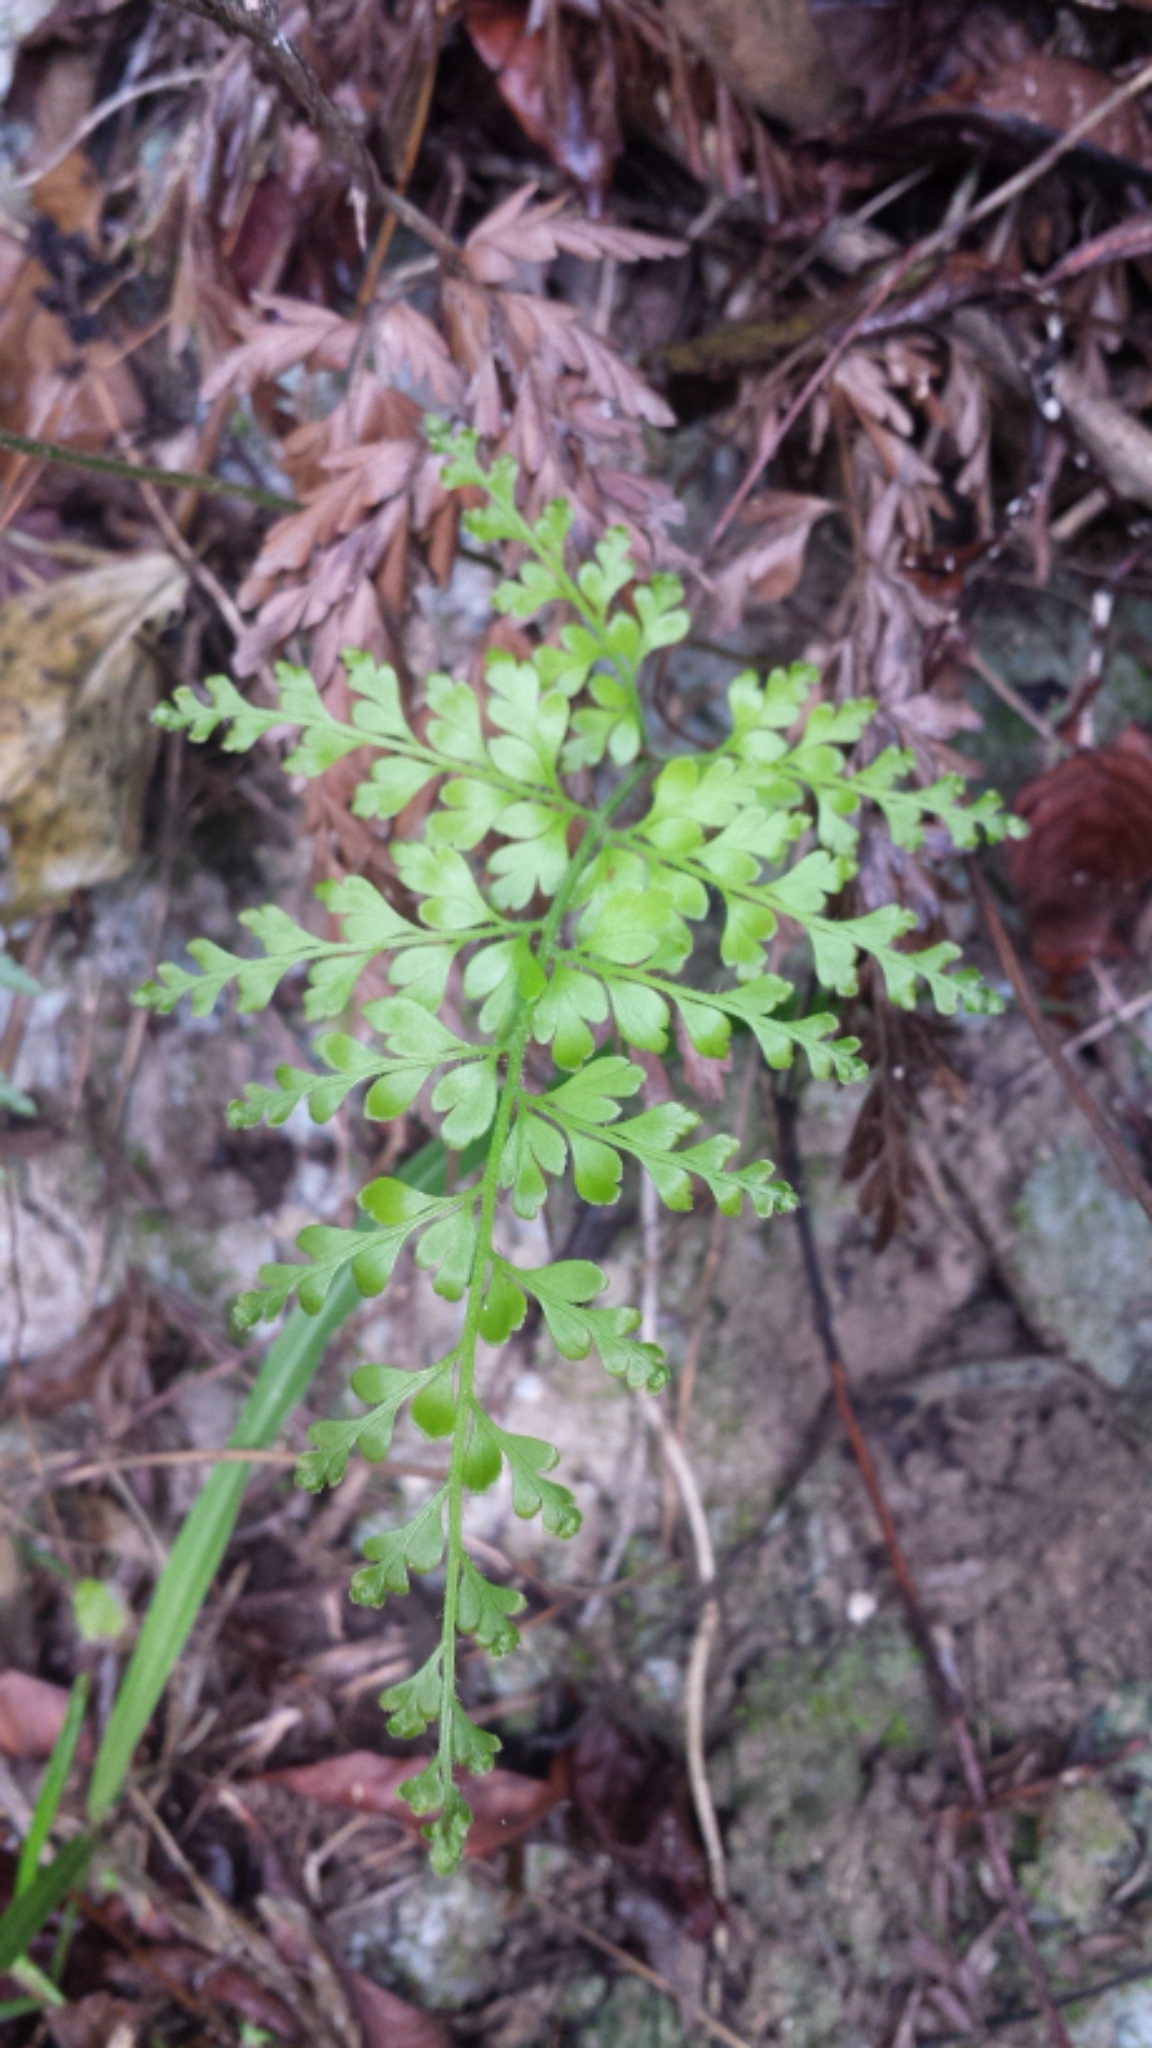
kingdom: Plantae
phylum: Tracheophyta
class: Polypodiopsida
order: Schizaeales
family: Anemiaceae
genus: Anemia
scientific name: Anemia adiantifolia
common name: Pine fern
